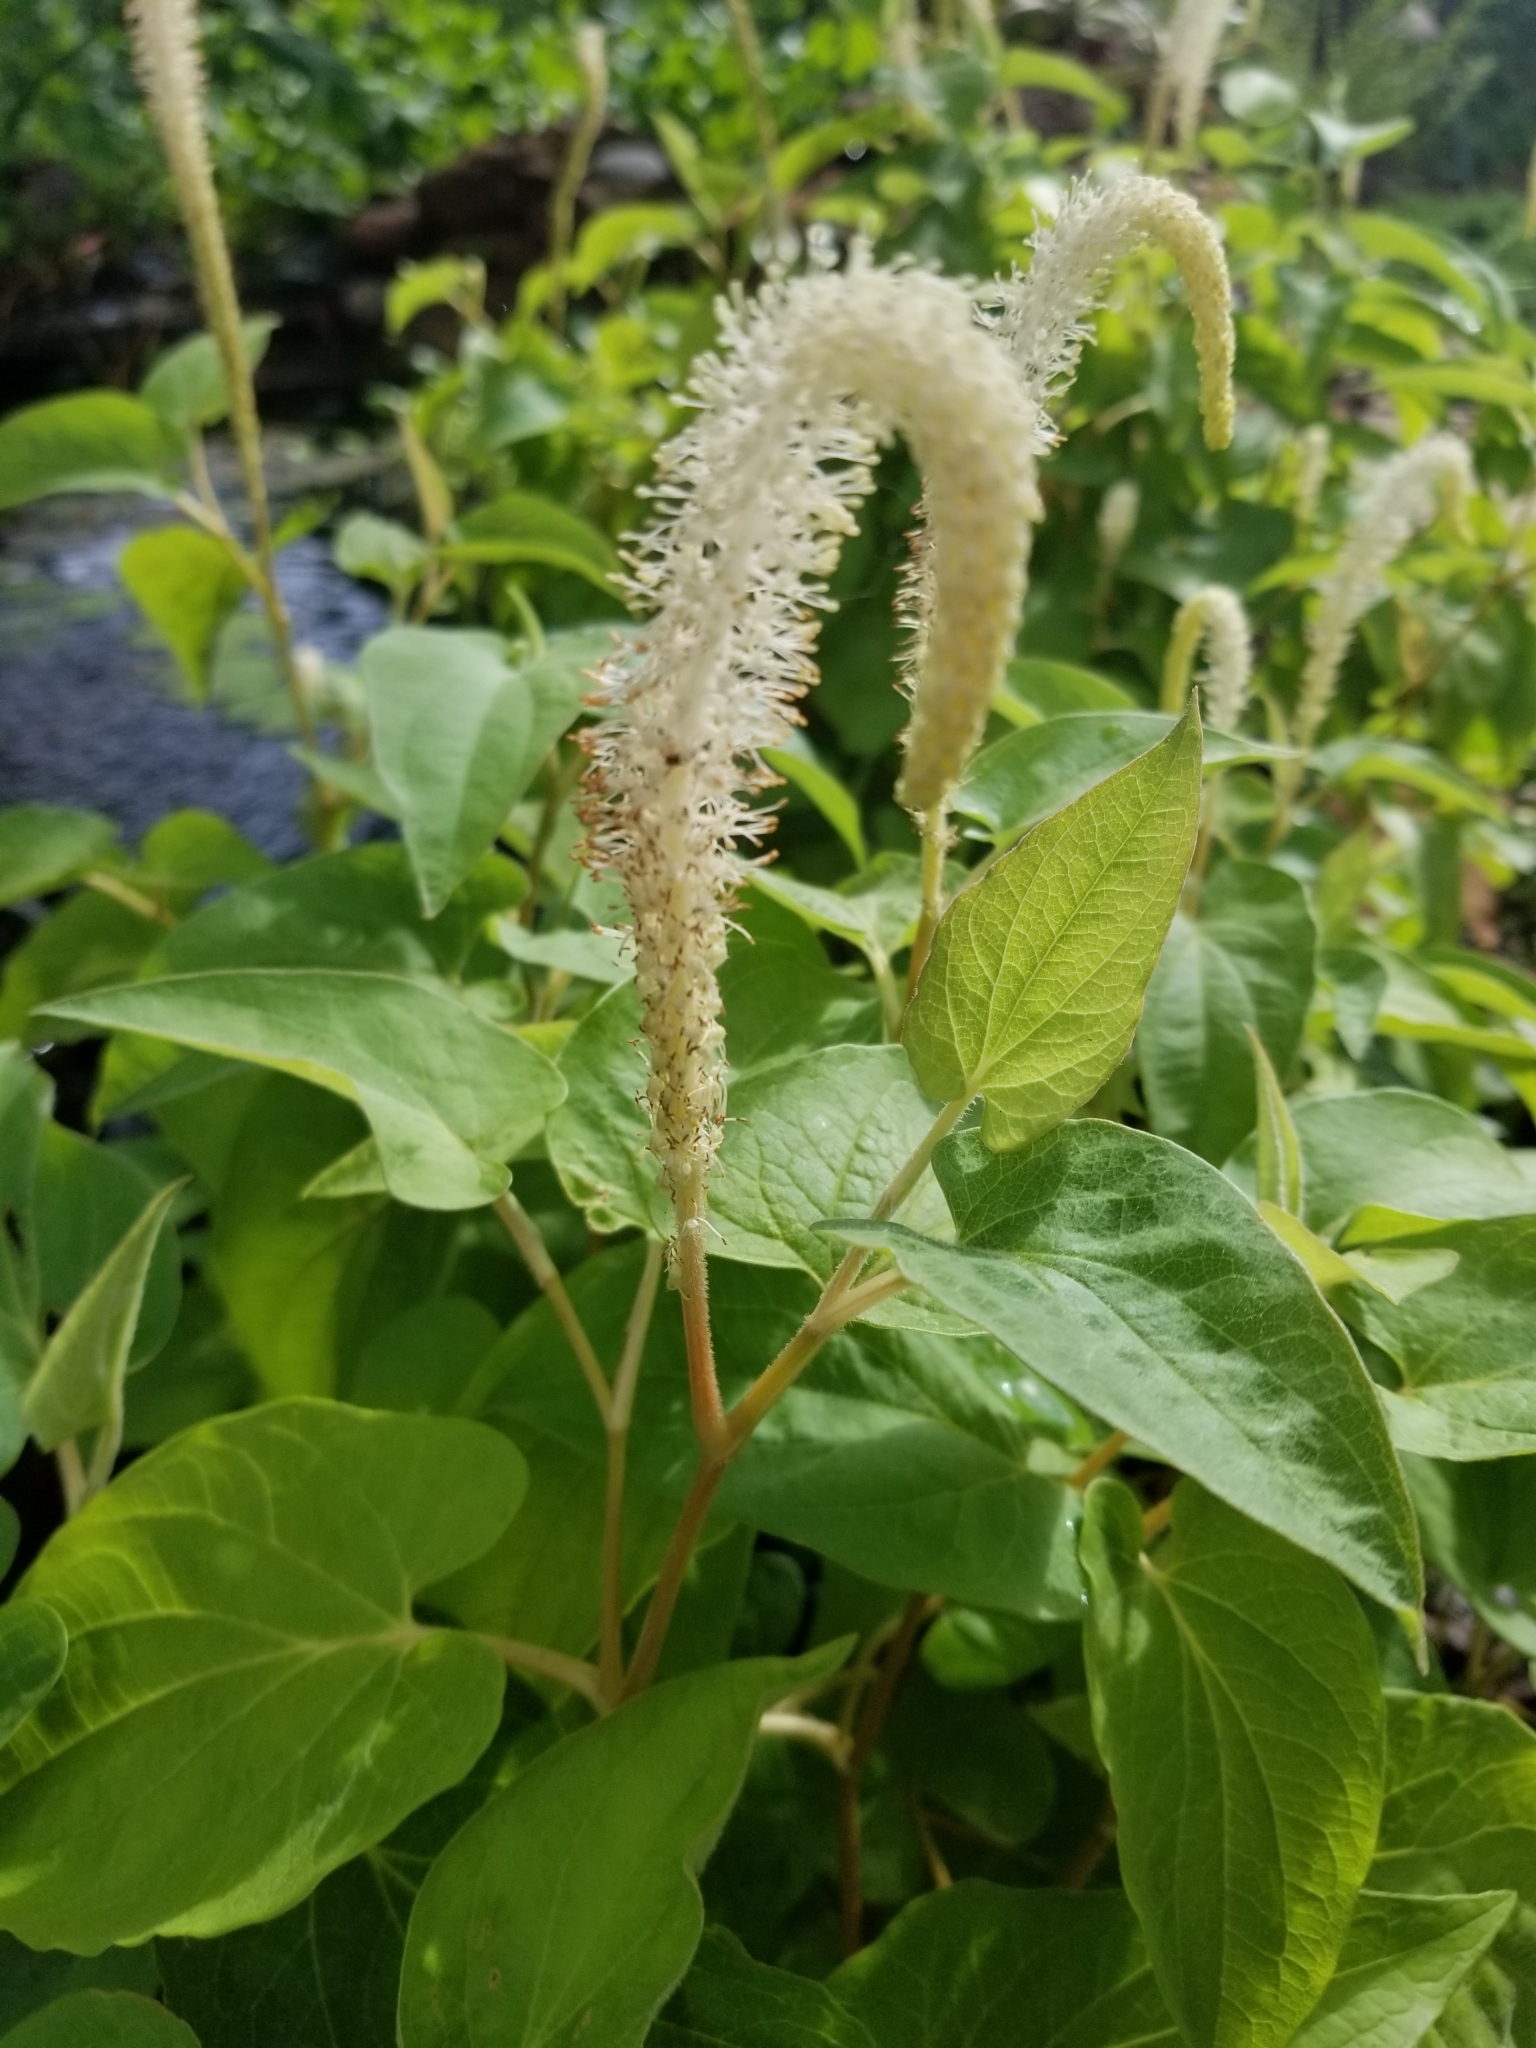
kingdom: Plantae
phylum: Tracheophyta
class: Magnoliopsida
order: Piperales
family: Saururaceae
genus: Saururus
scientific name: Saururus cernuus
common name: Lizard's-tail
